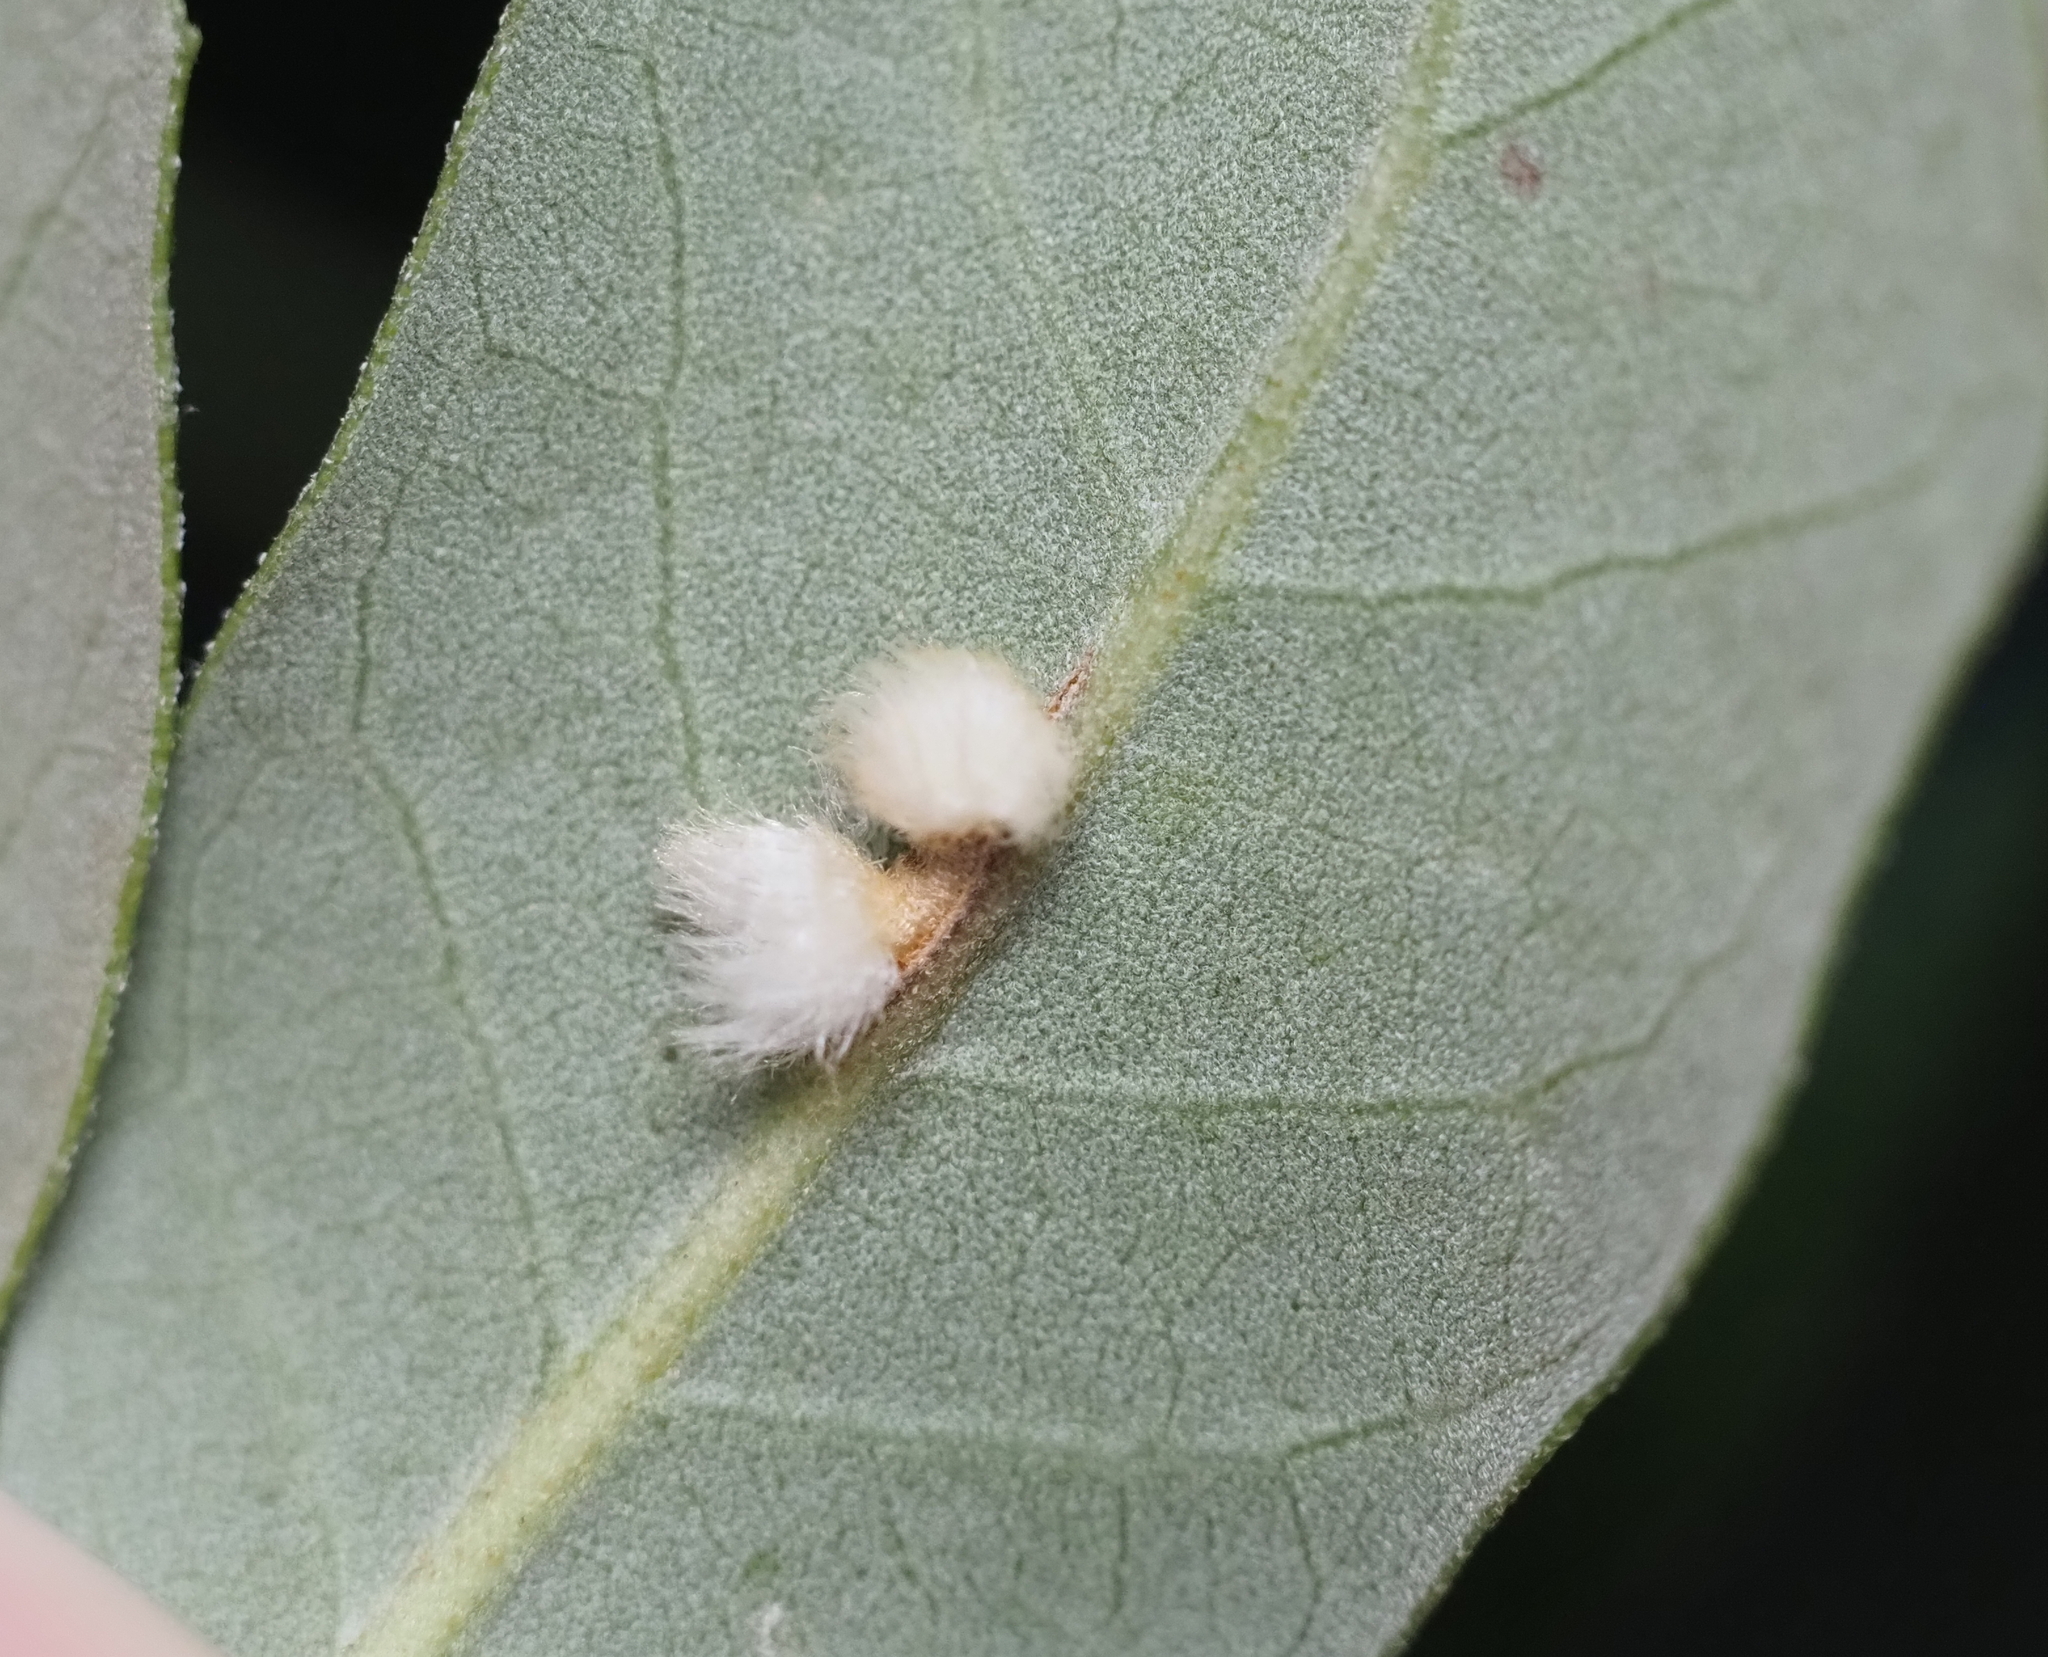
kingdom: Animalia
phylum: Arthropoda
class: Insecta
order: Hymenoptera
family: Cynipidae
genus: Andricus
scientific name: Andricus Druon quercuslanigerum
